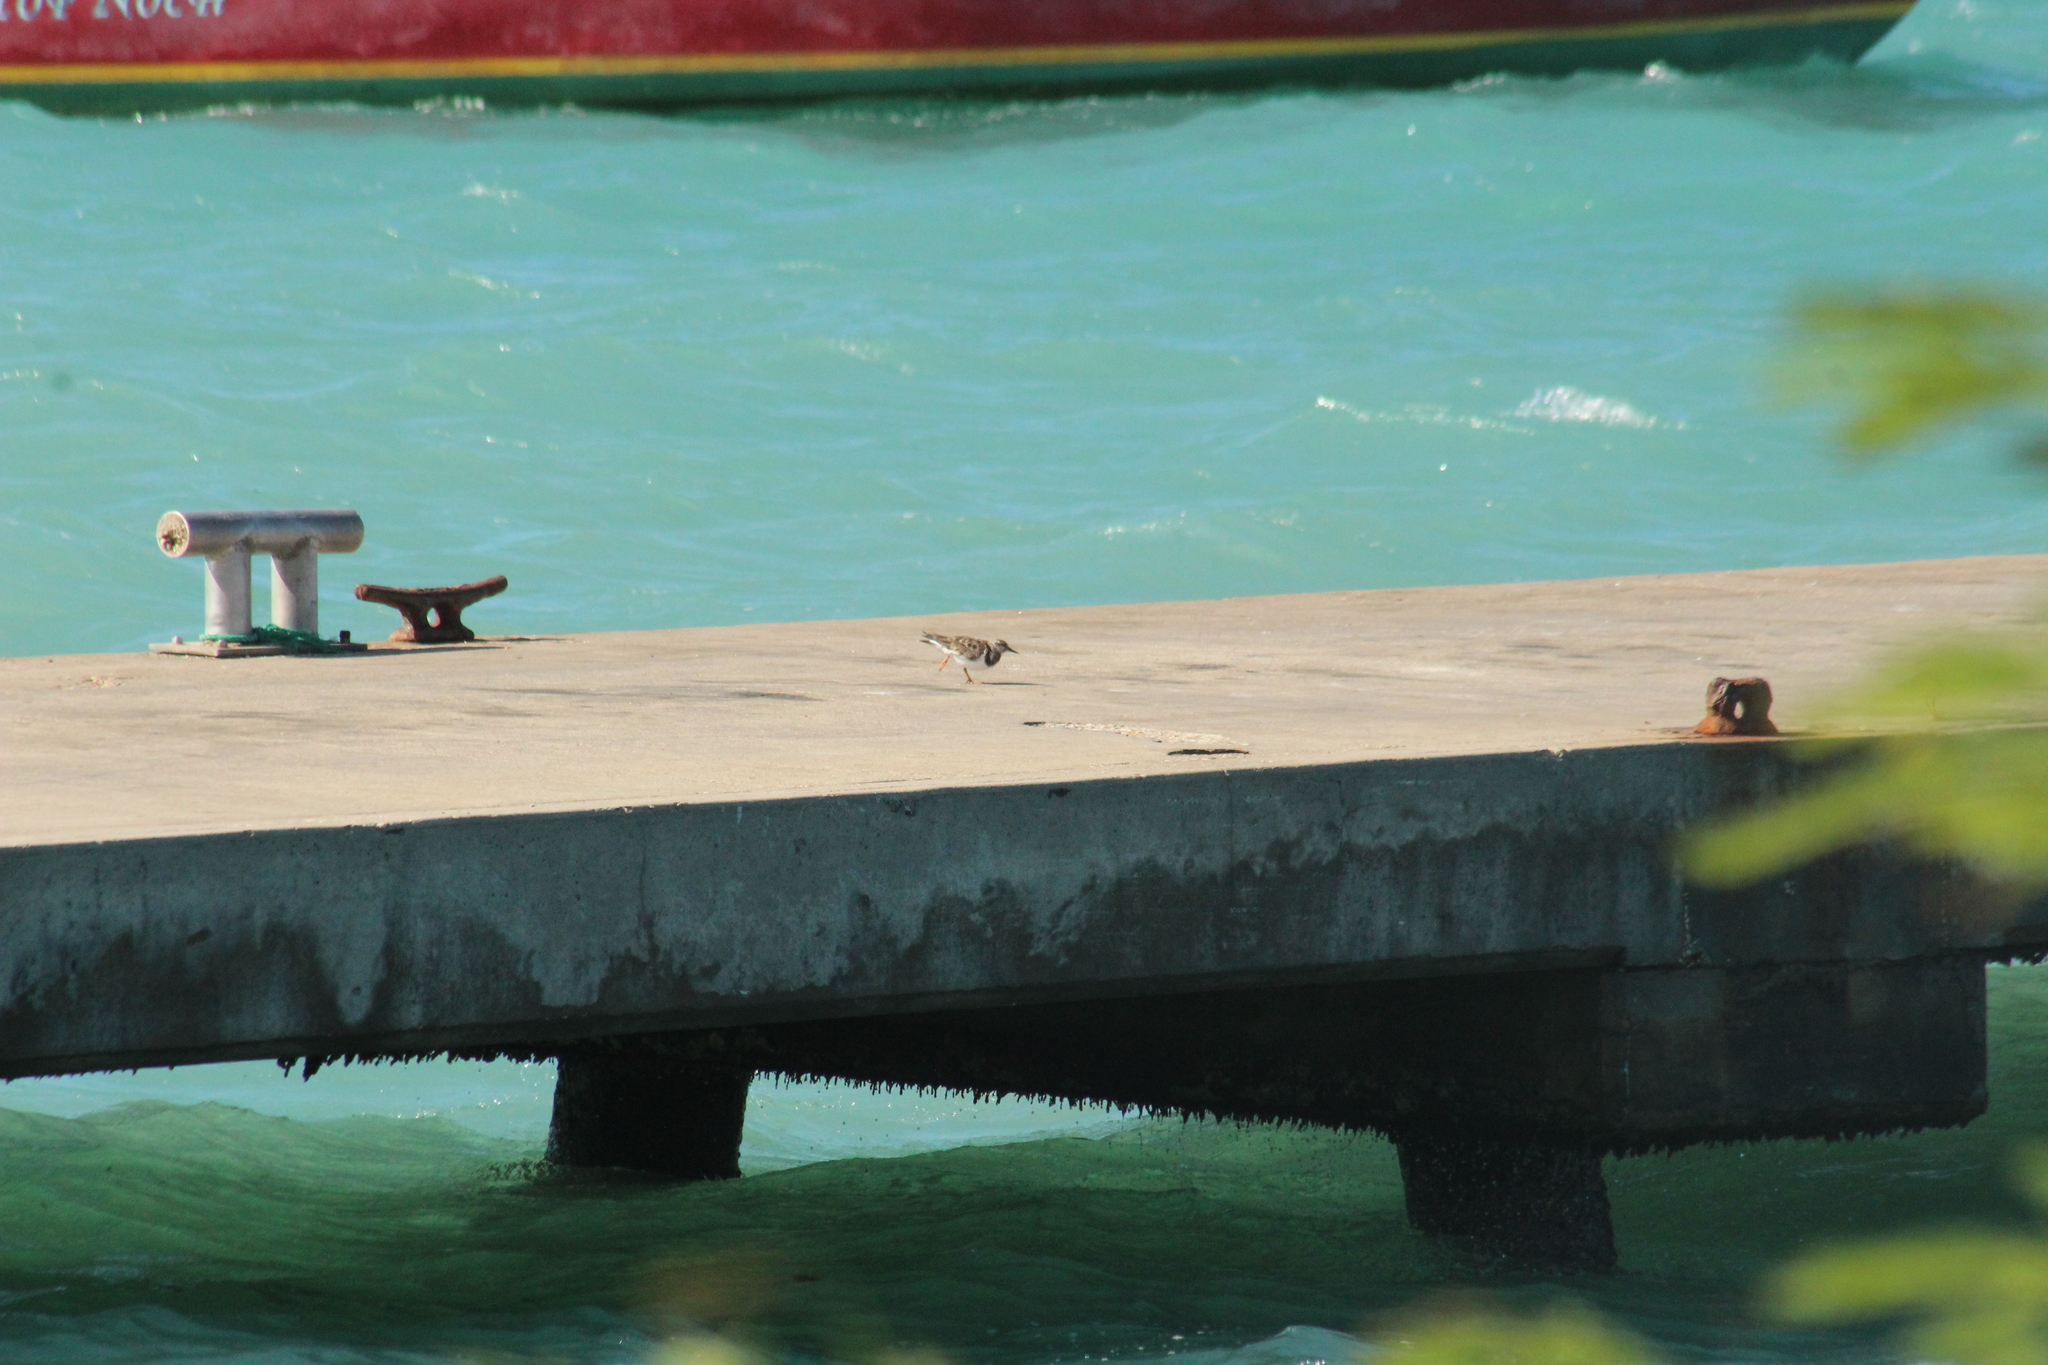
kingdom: Animalia
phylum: Chordata
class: Aves
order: Charadriiformes
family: Scolopacidae
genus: Arenaria
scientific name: Arenaria interpres
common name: Ruddy turnstone
